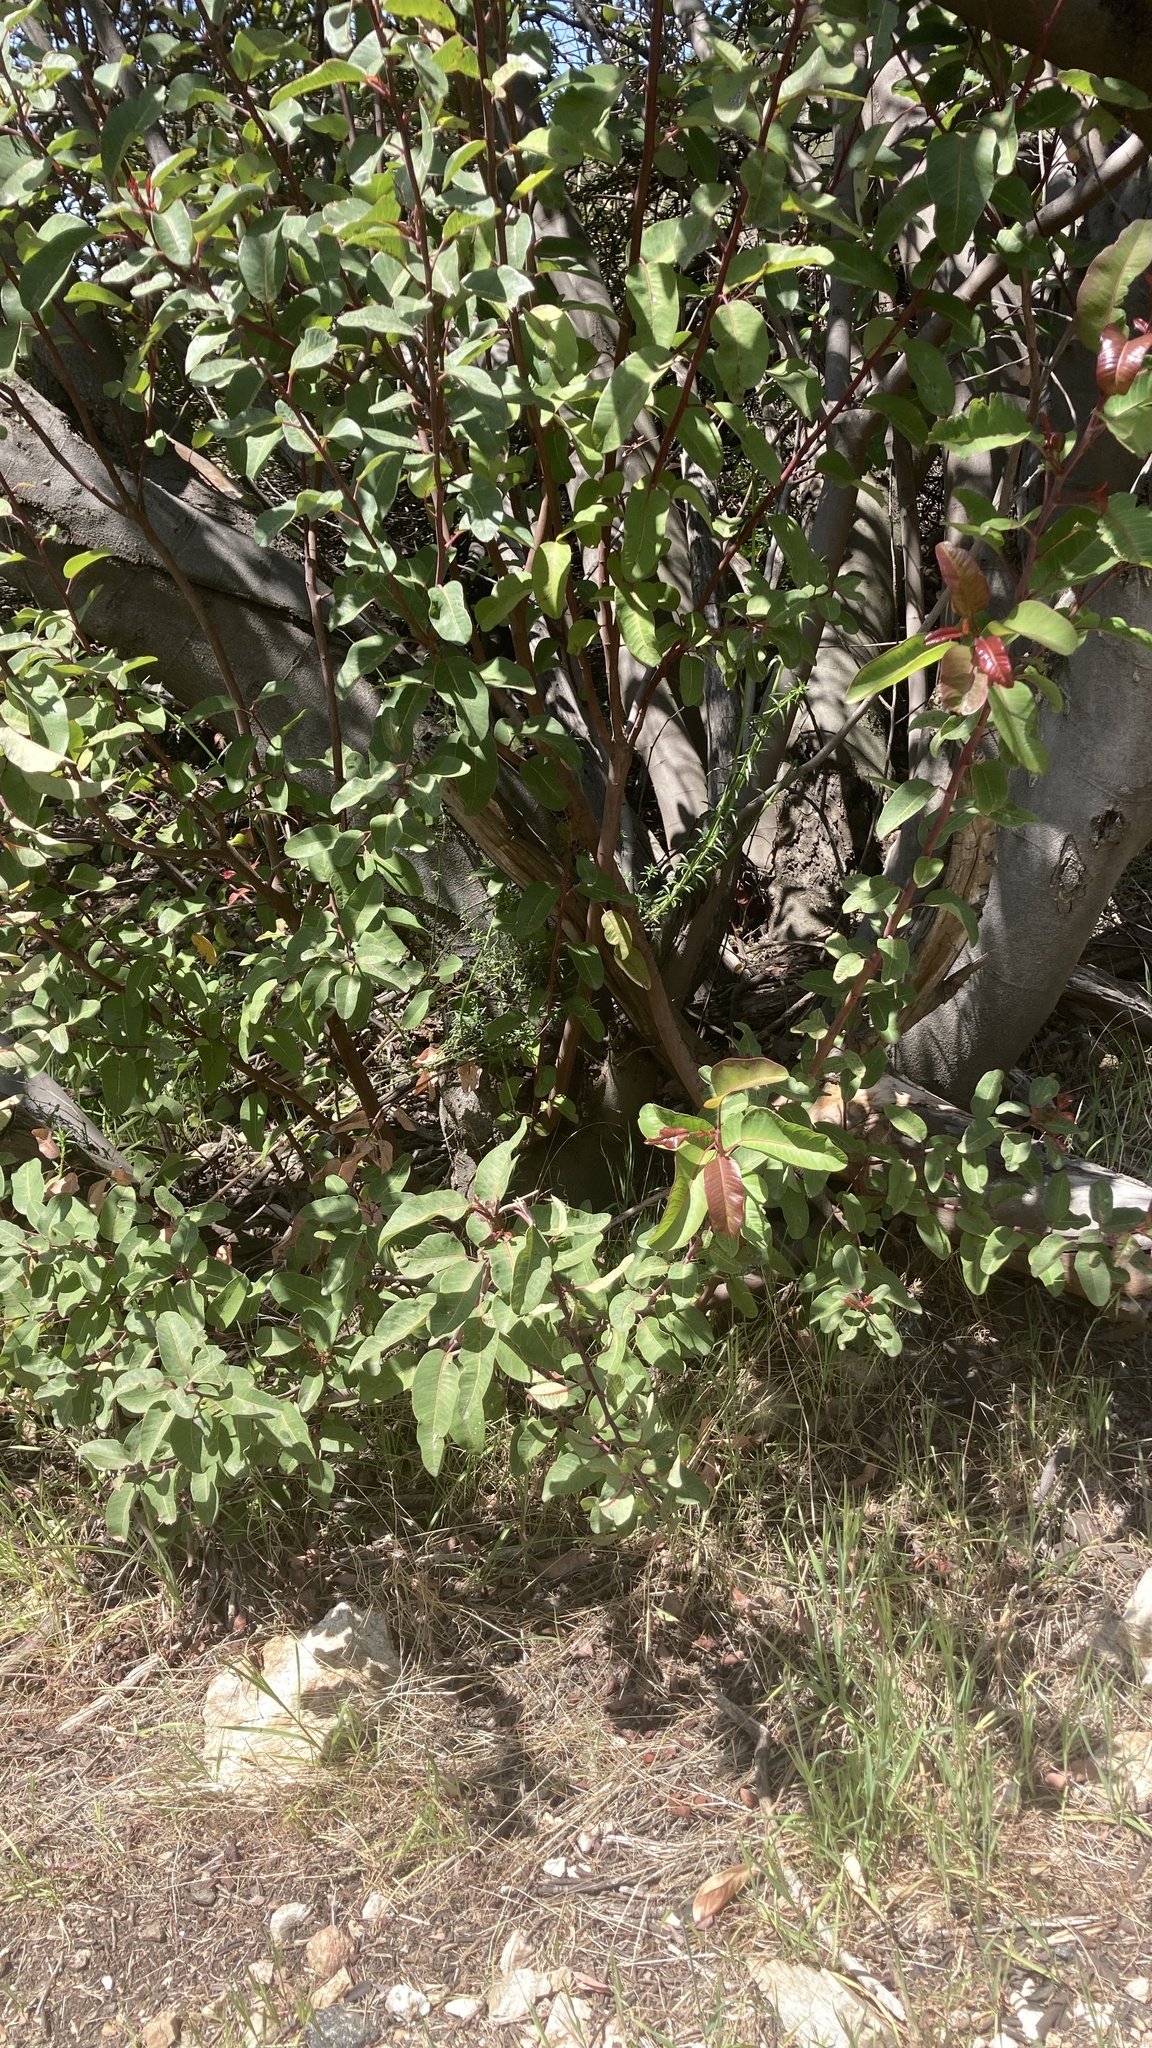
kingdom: Plantae
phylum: Tracheophyta
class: Magnoliopsida
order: Sapindales
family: Anacardiaceae
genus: Malosma
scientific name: Malosma laurina
